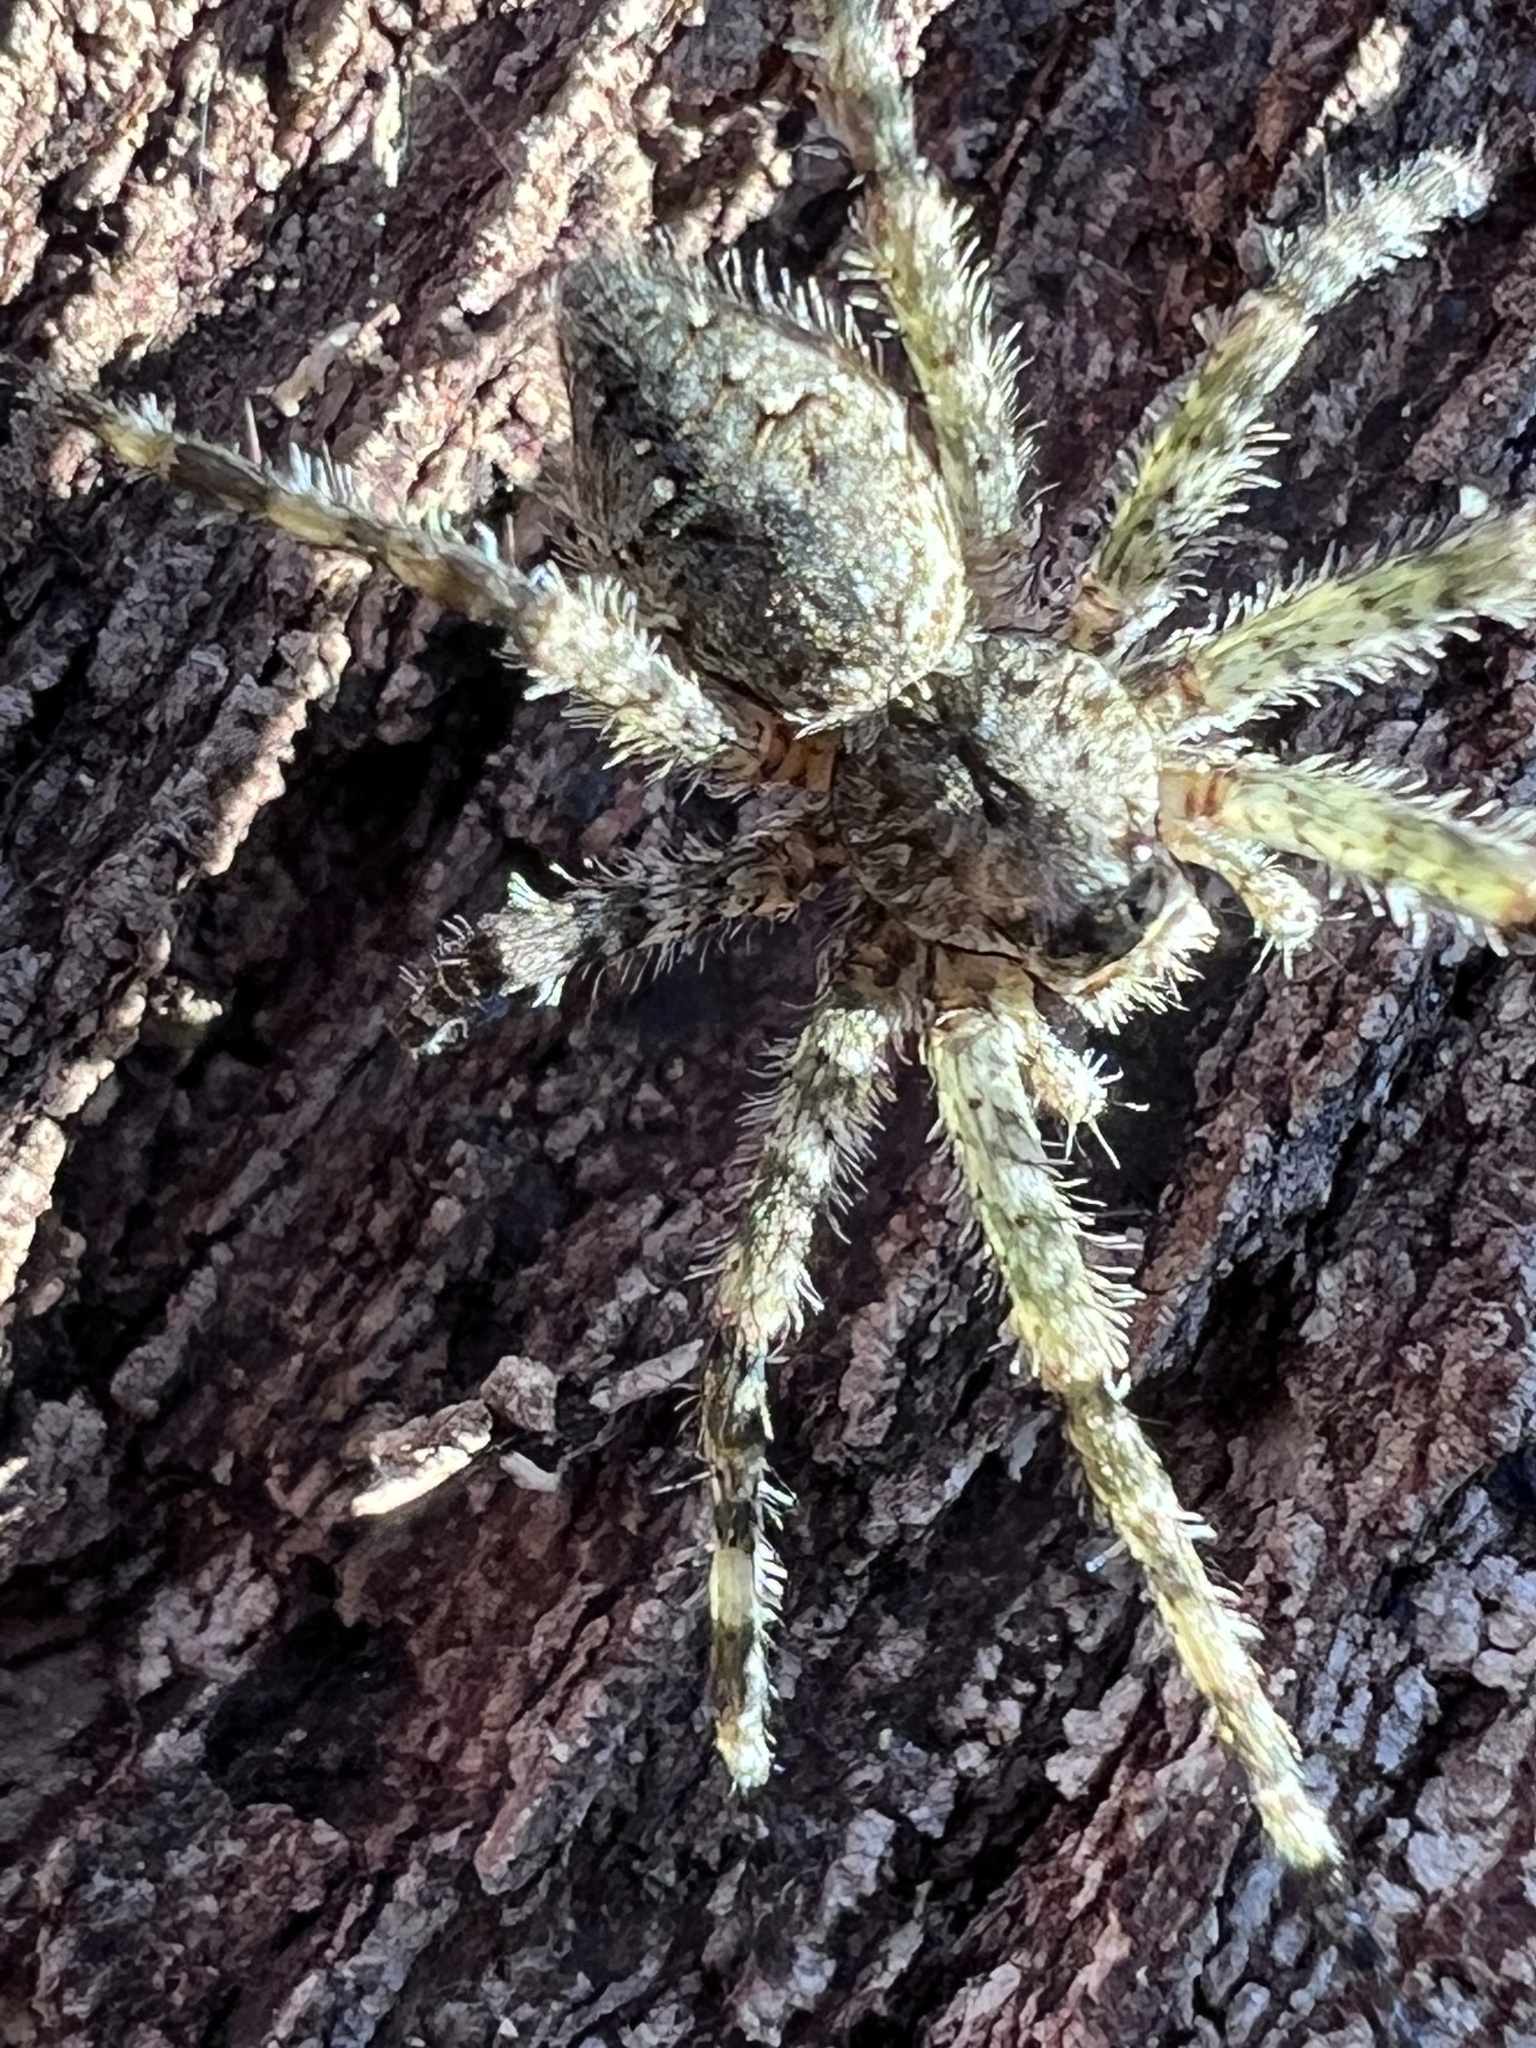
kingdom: Animalia
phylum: Arthropoda
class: Arachnida
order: Araneae
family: Pisauridae
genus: Dolomedes
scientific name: Dolomedes albineus
